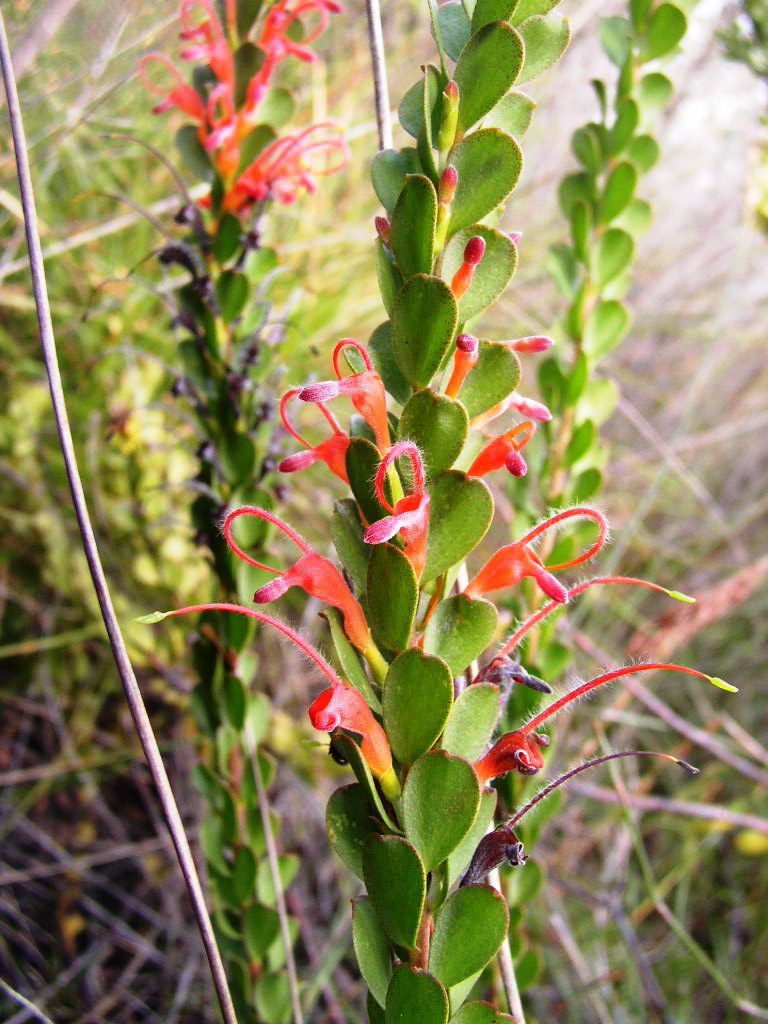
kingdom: Plantae
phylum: Tracheophyta
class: Magnoliopsida
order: Proteales
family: Proteaceae
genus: Adenanthos
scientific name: Adenanthos obovatus
